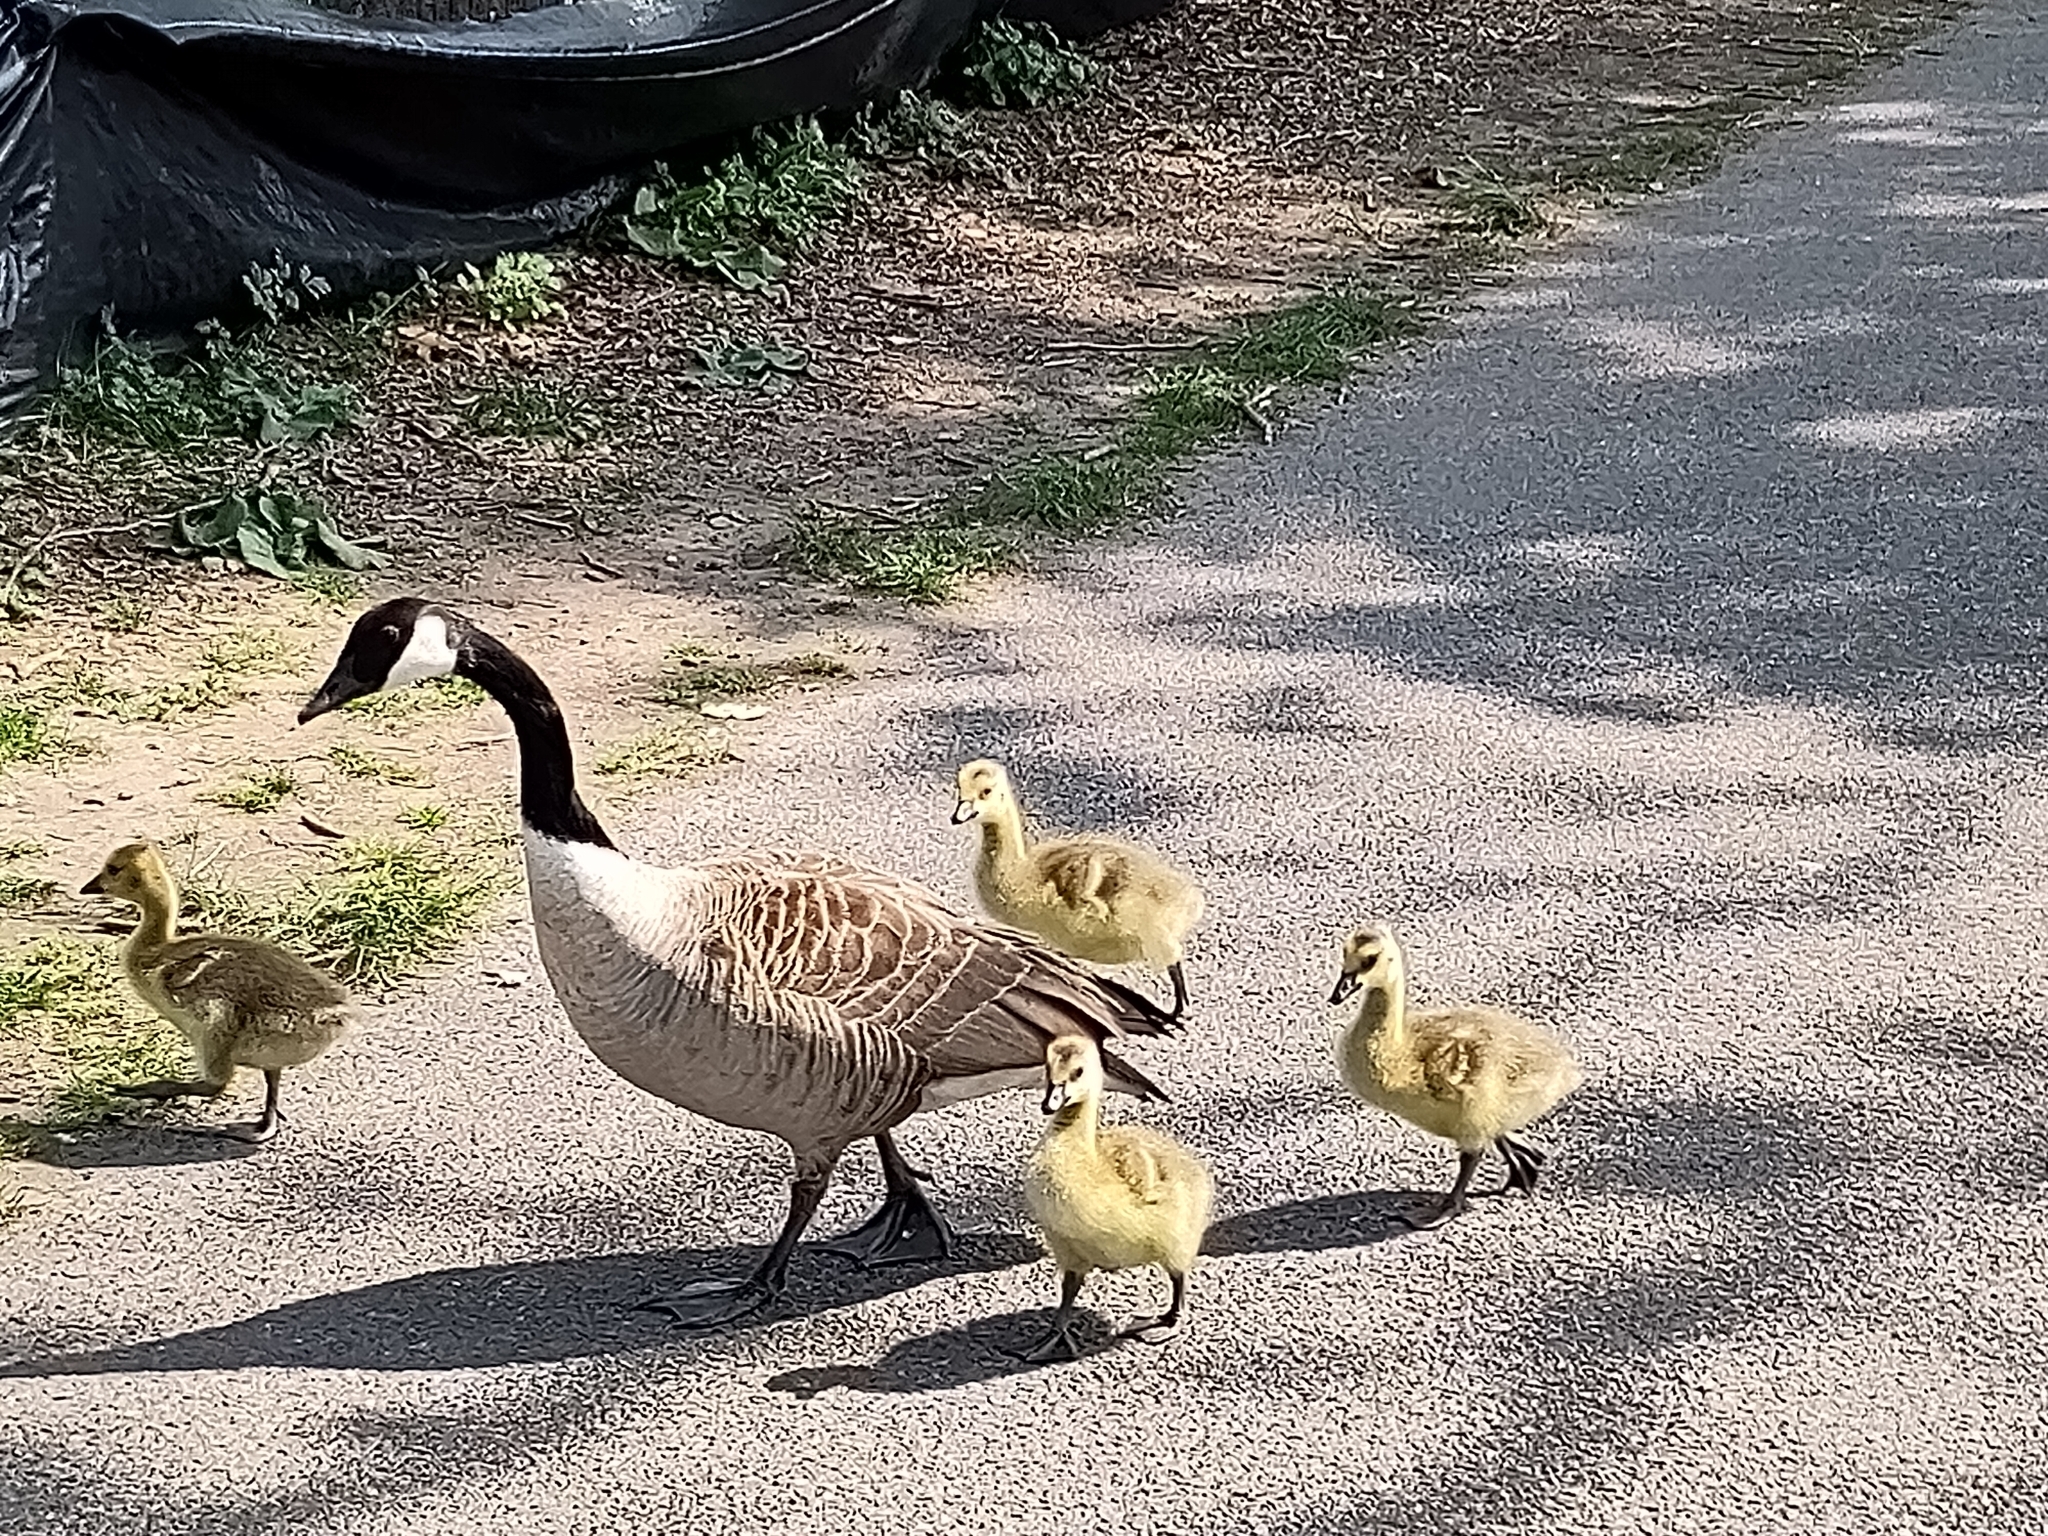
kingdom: Animalia
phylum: Chordata
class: Aves
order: Anseriformes
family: Anatidae
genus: Branta
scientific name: Branta canadensis
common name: Canada goose
